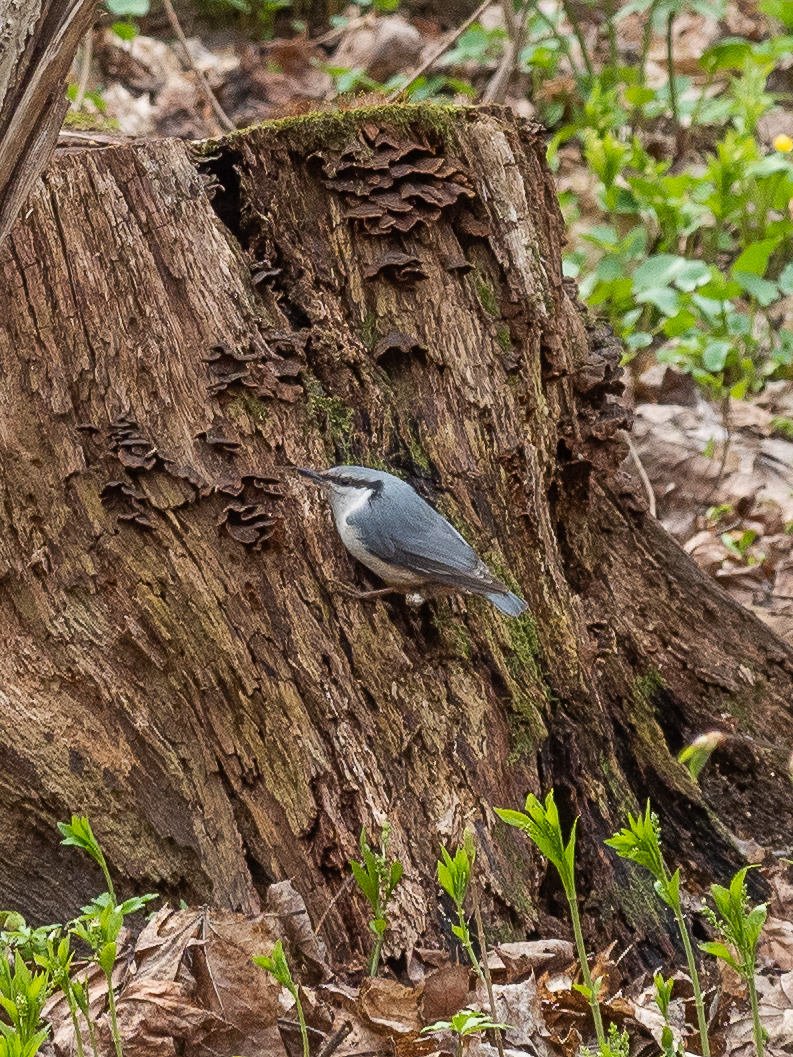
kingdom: Animalia
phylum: Chordata
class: Aves
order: Passeriformes
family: Sittidae
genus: Sitta
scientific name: Sitta europaea
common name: Eurasian nuthatch
